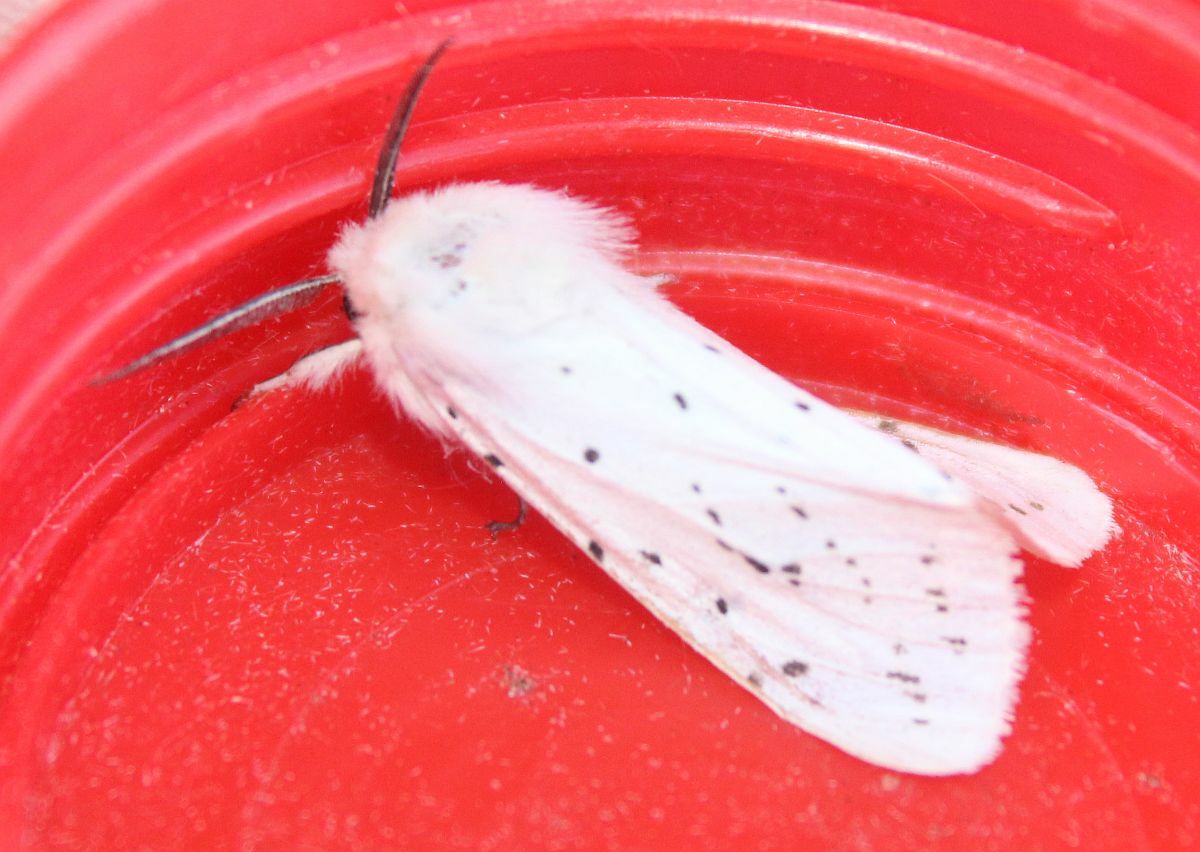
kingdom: Animalia
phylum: Arthropoda
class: Insecta
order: Lepidoptera
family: Erebidae
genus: Spilosoma
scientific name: Spilosoma lubricipeda
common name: White ermine
